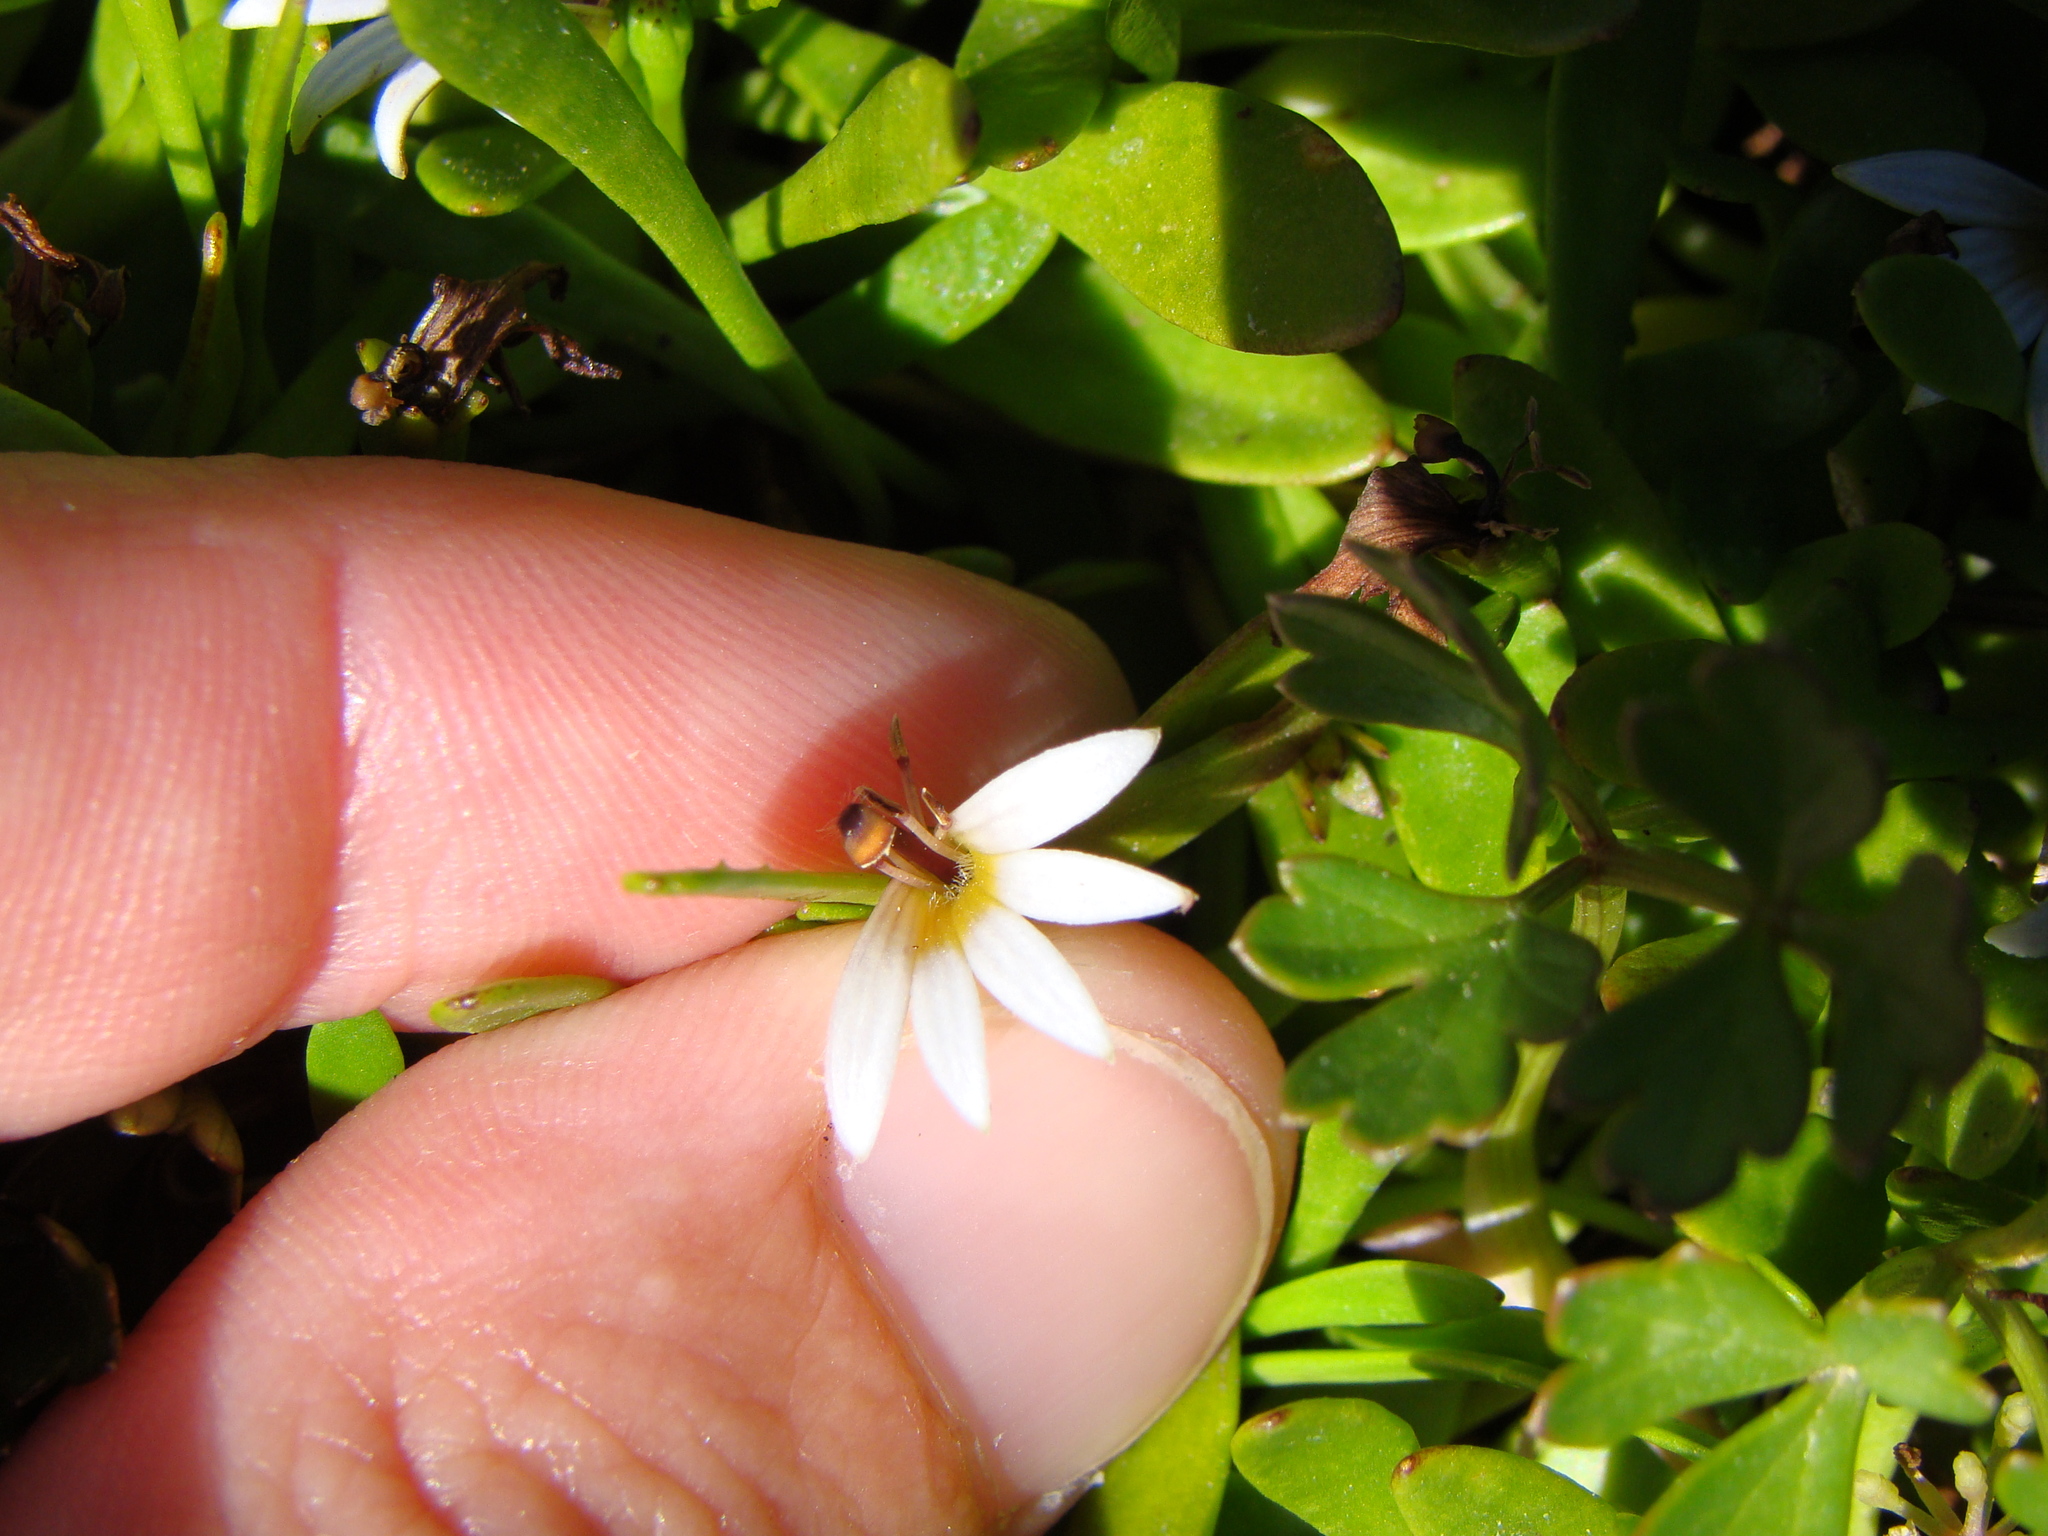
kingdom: Plantae
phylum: Tracheophyta
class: Magnoliopsida
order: Asterales
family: Goodeniaceae
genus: Goodenia
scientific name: Goodenia radicans
